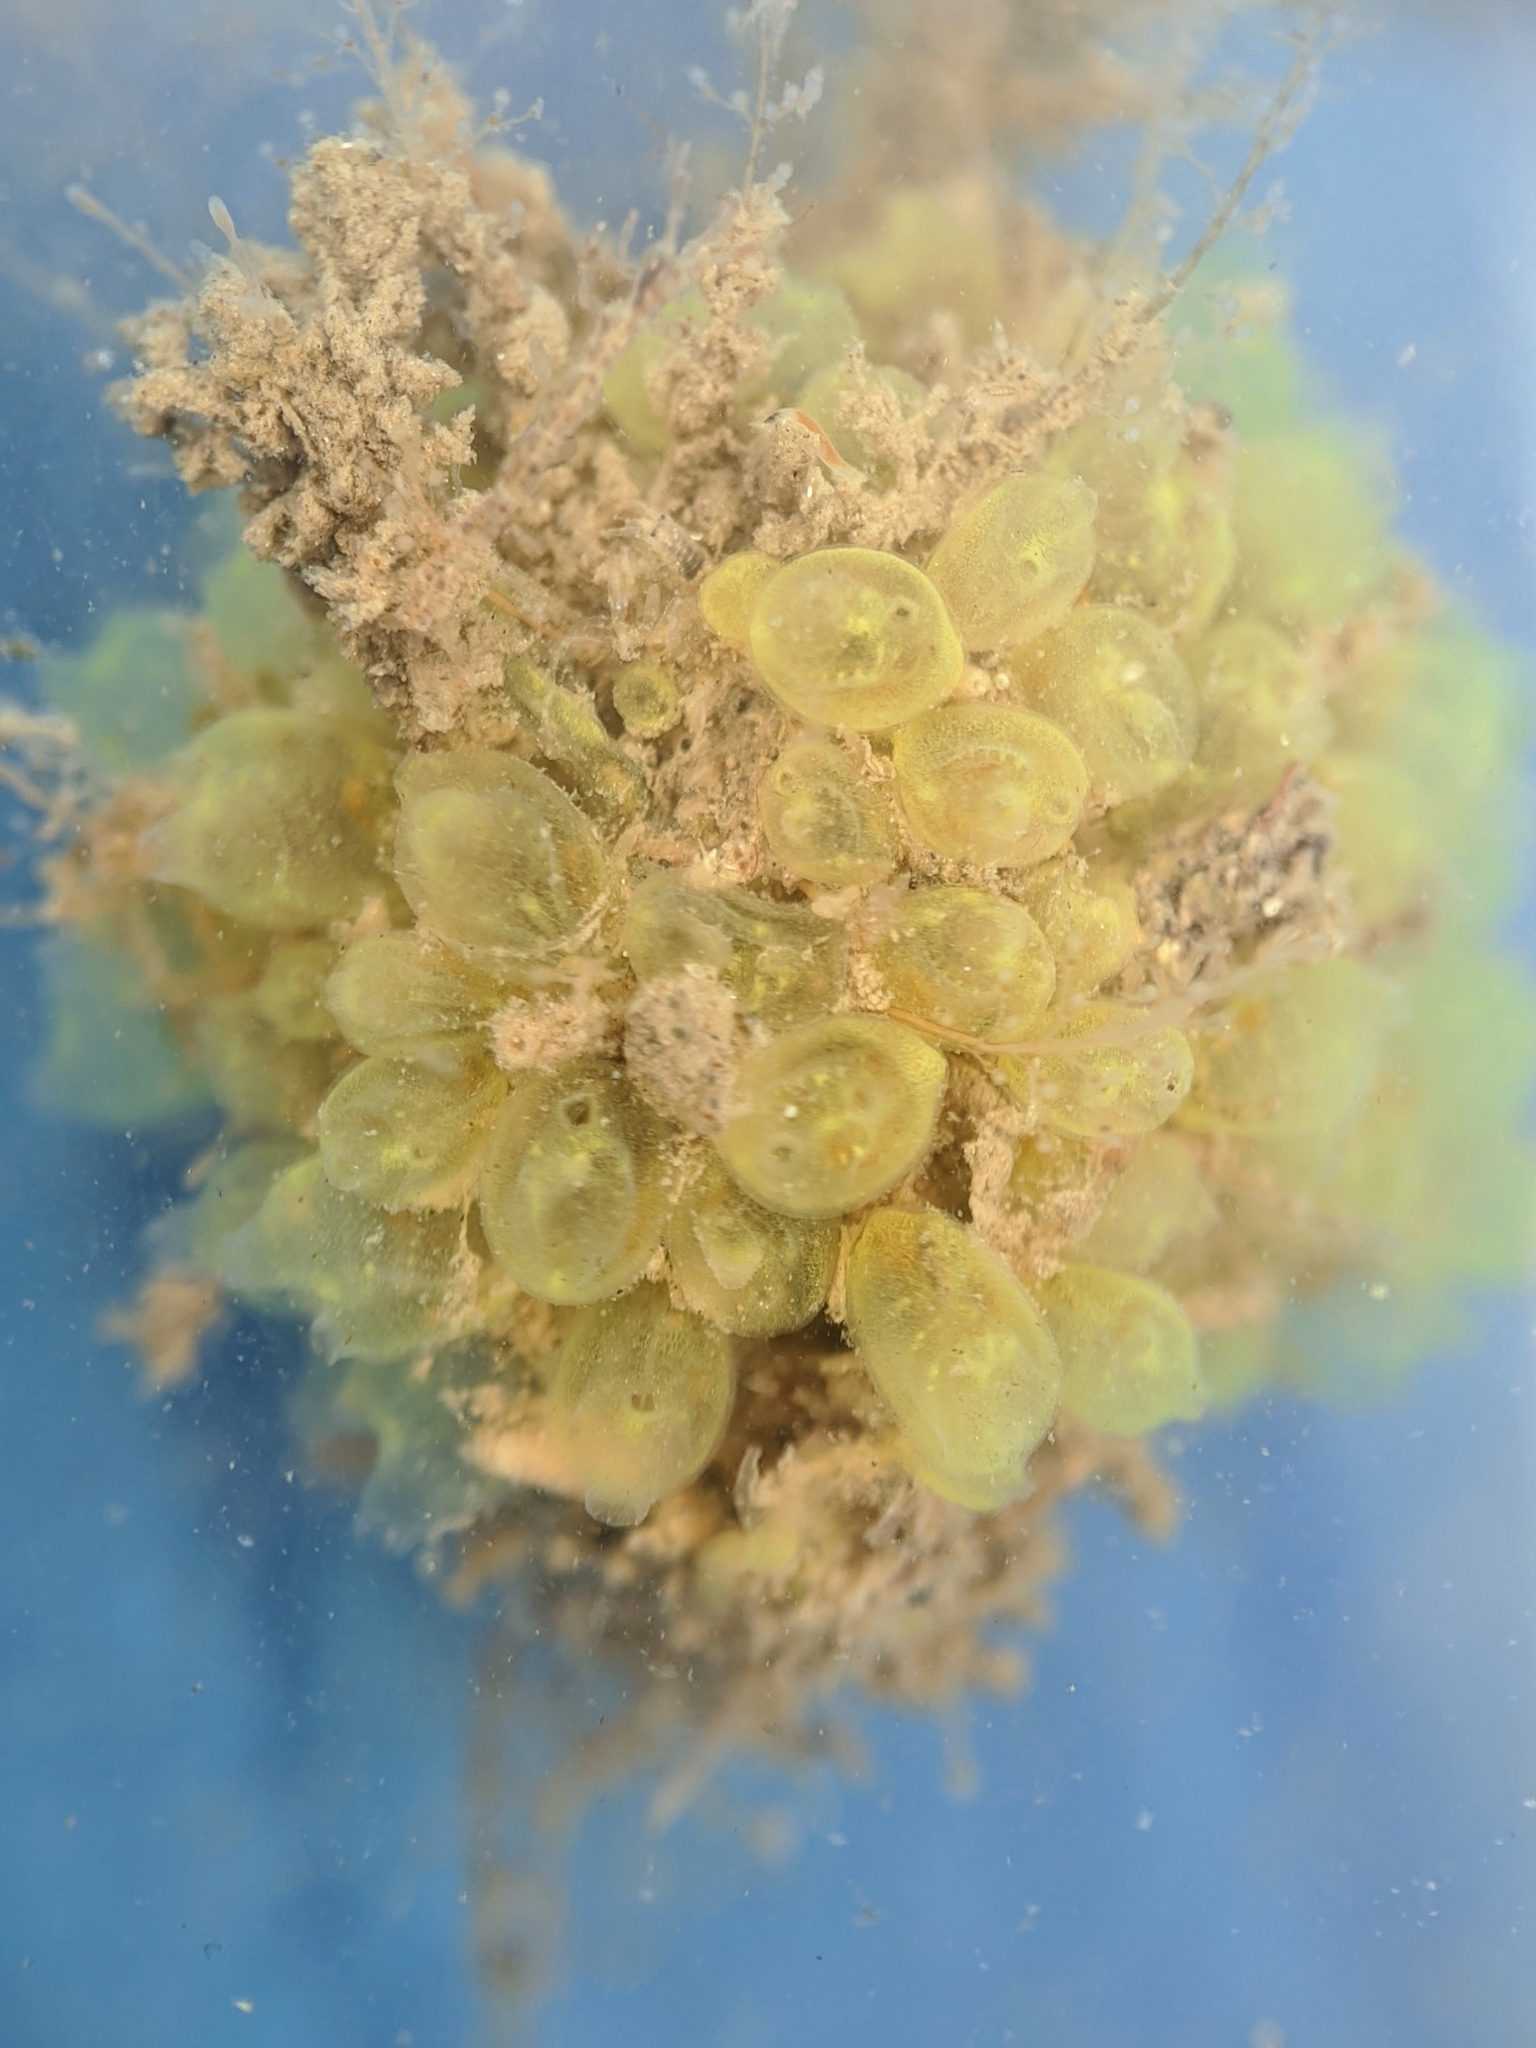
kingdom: Animalia
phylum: Chordata
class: Ascidiacea
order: Phlebobranchia
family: Perophoridae
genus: Perophora
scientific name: Perophora annectens
